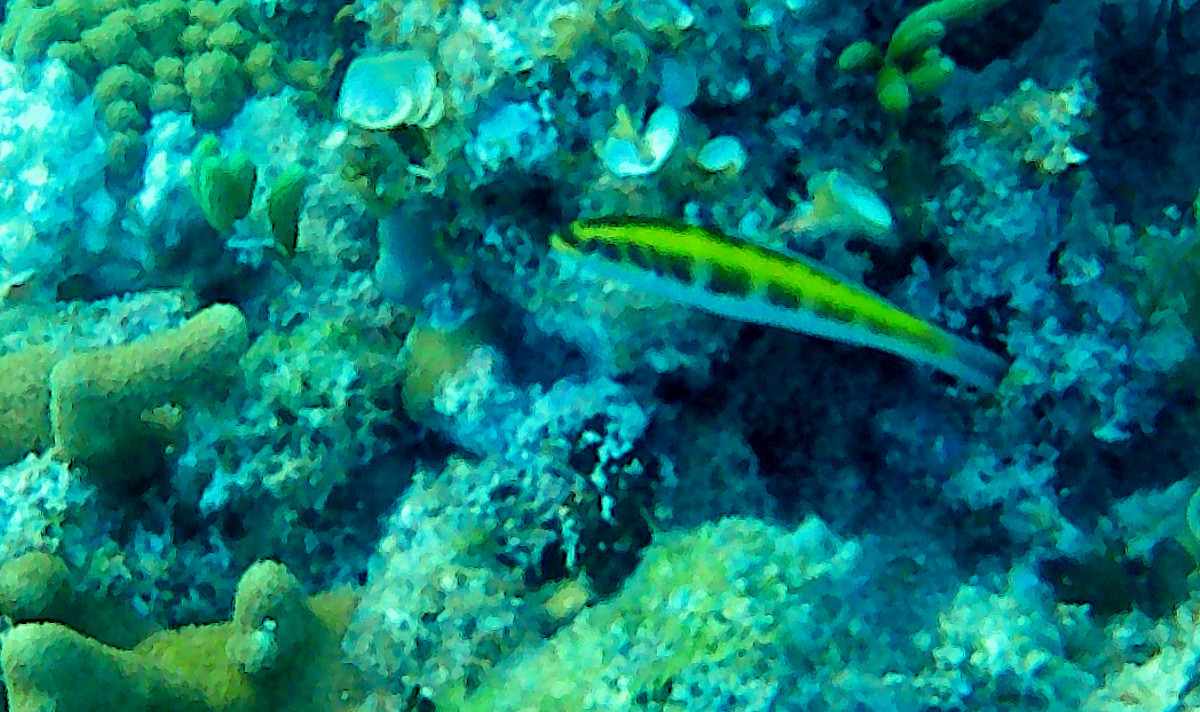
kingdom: Animalia
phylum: Chordata
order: Perciformes
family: Labridae
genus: Thalassoma
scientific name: Thalassoma bifasciatum
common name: Bluehead wrasse
